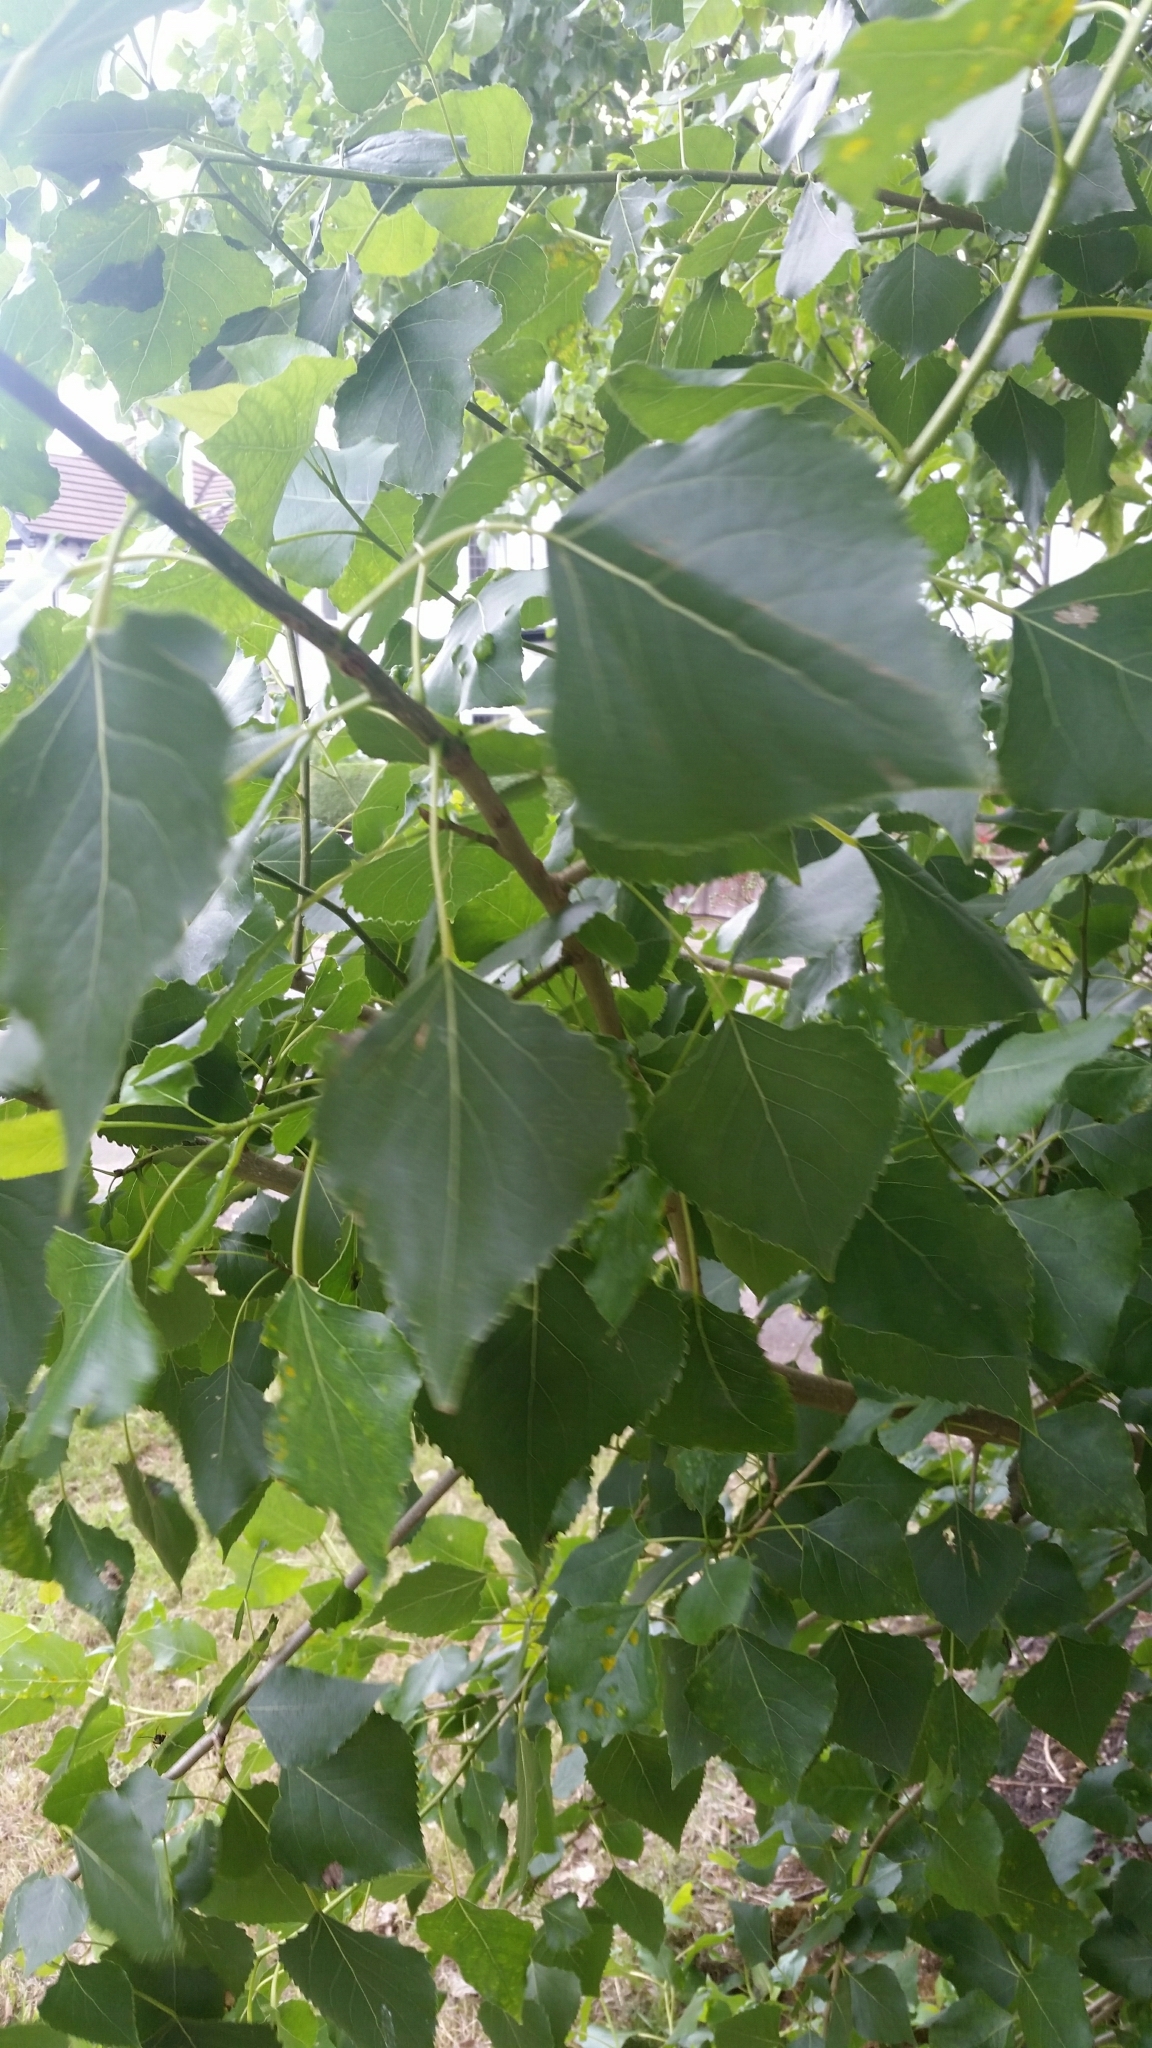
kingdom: Plantae
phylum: Tracheophyta
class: Magnoliopsida
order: Malpighiales
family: Salicaceae
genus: Populus
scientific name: Populus nigra
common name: Black poplar
